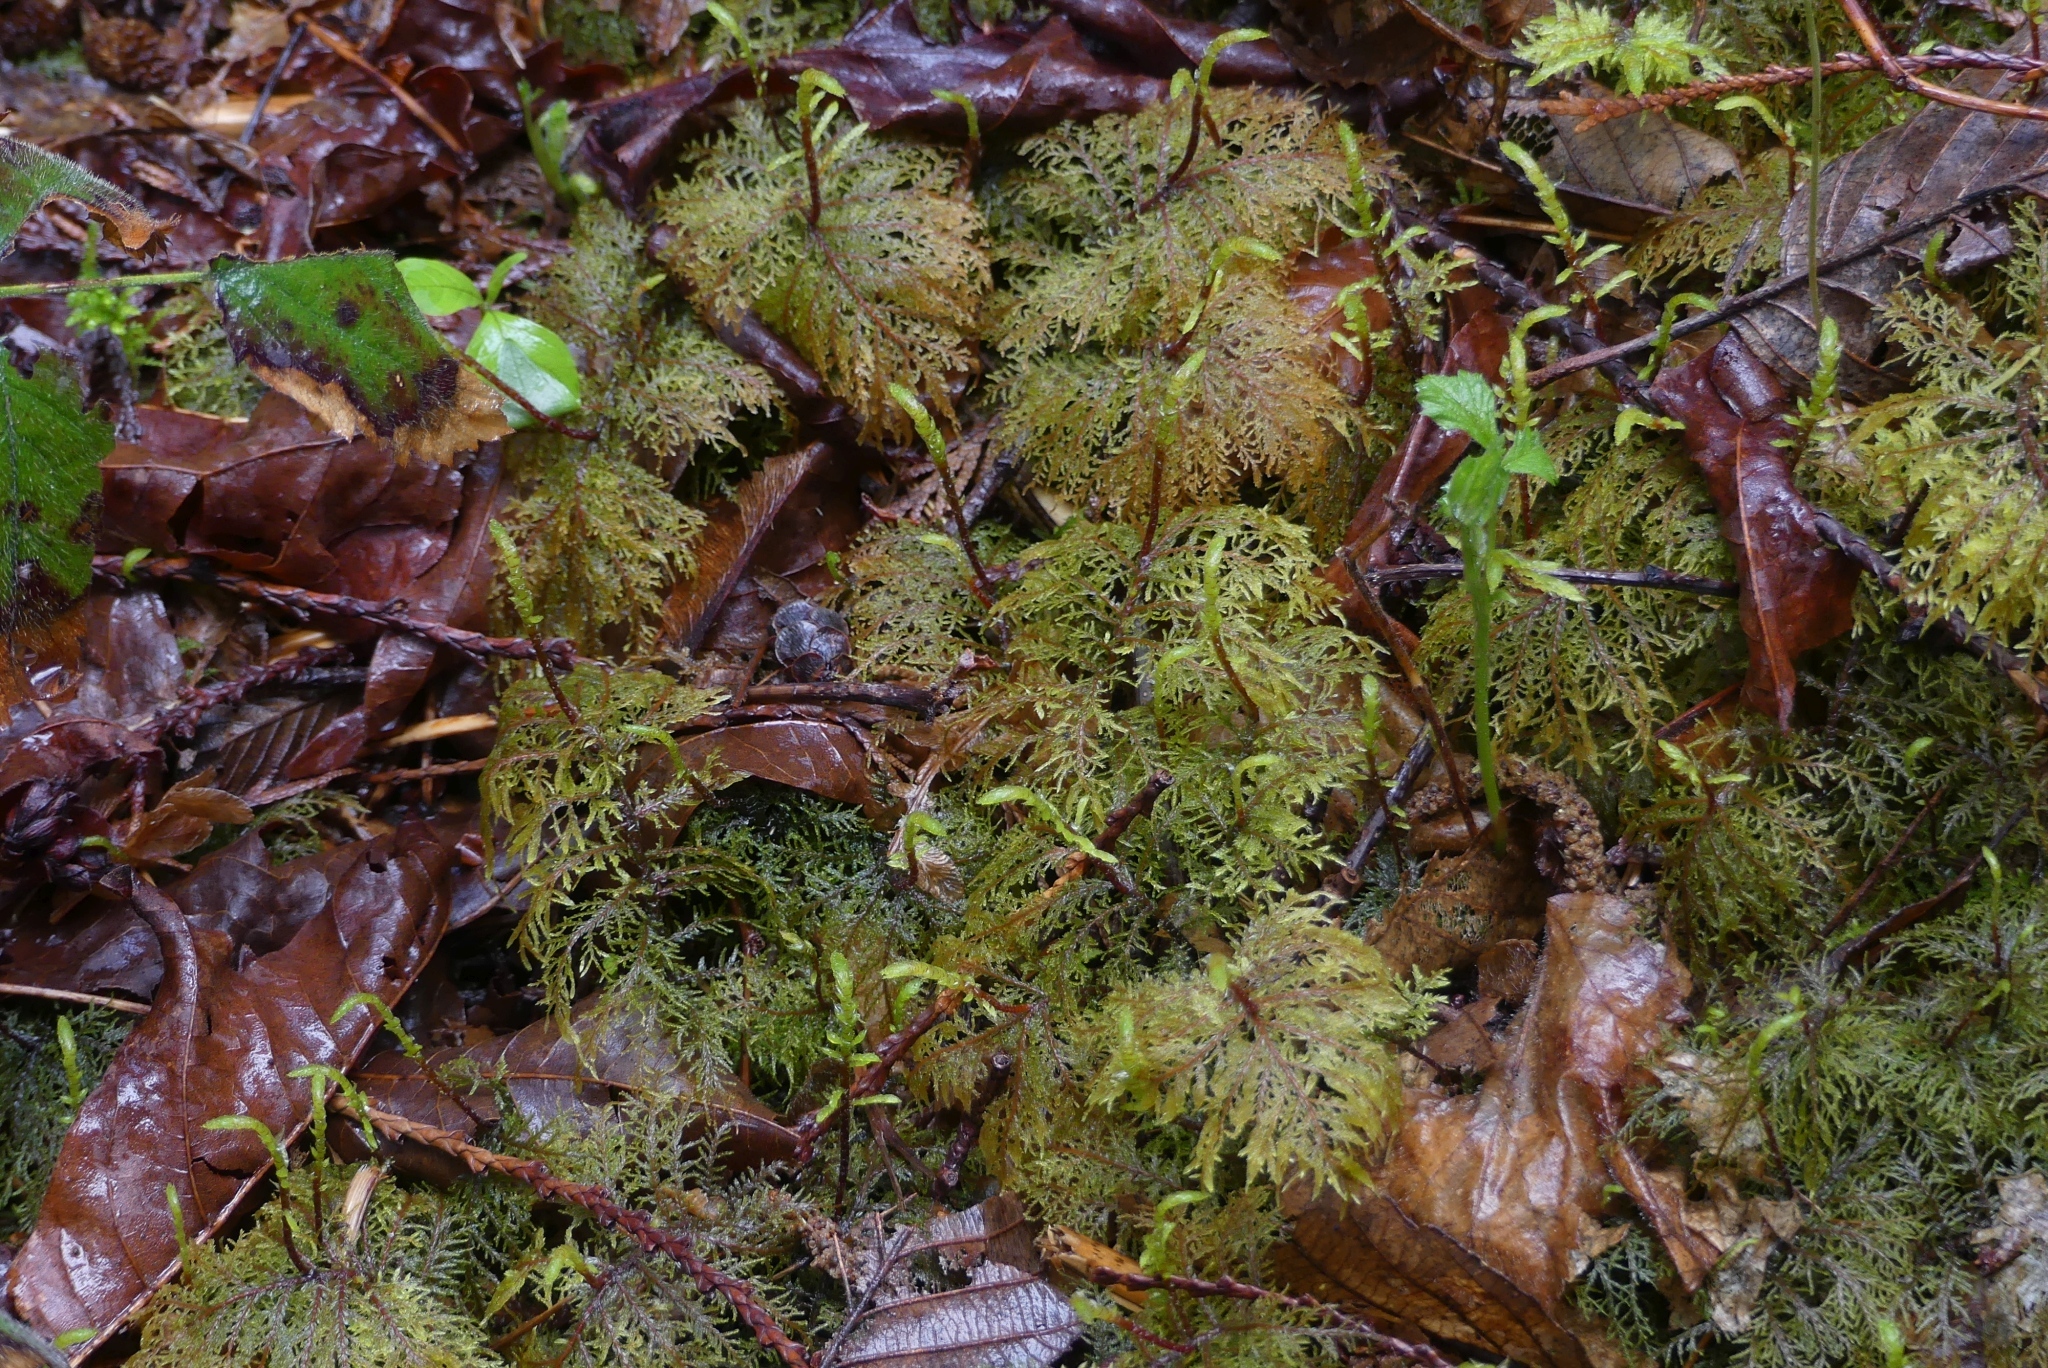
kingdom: Plantae
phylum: Bryophyta
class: Bryopsida
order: Hypnales
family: Hylocomiaceae
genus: Hylocomium
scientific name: Hylocomium splendens
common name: Stairstep moss
